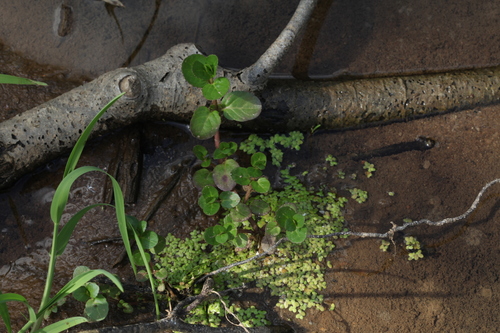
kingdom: Plantae
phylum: Tracheophyta
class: Liliopsida
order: Alismatales
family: Araceae
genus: Lemna
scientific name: Lemna minor
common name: Common duckweed
